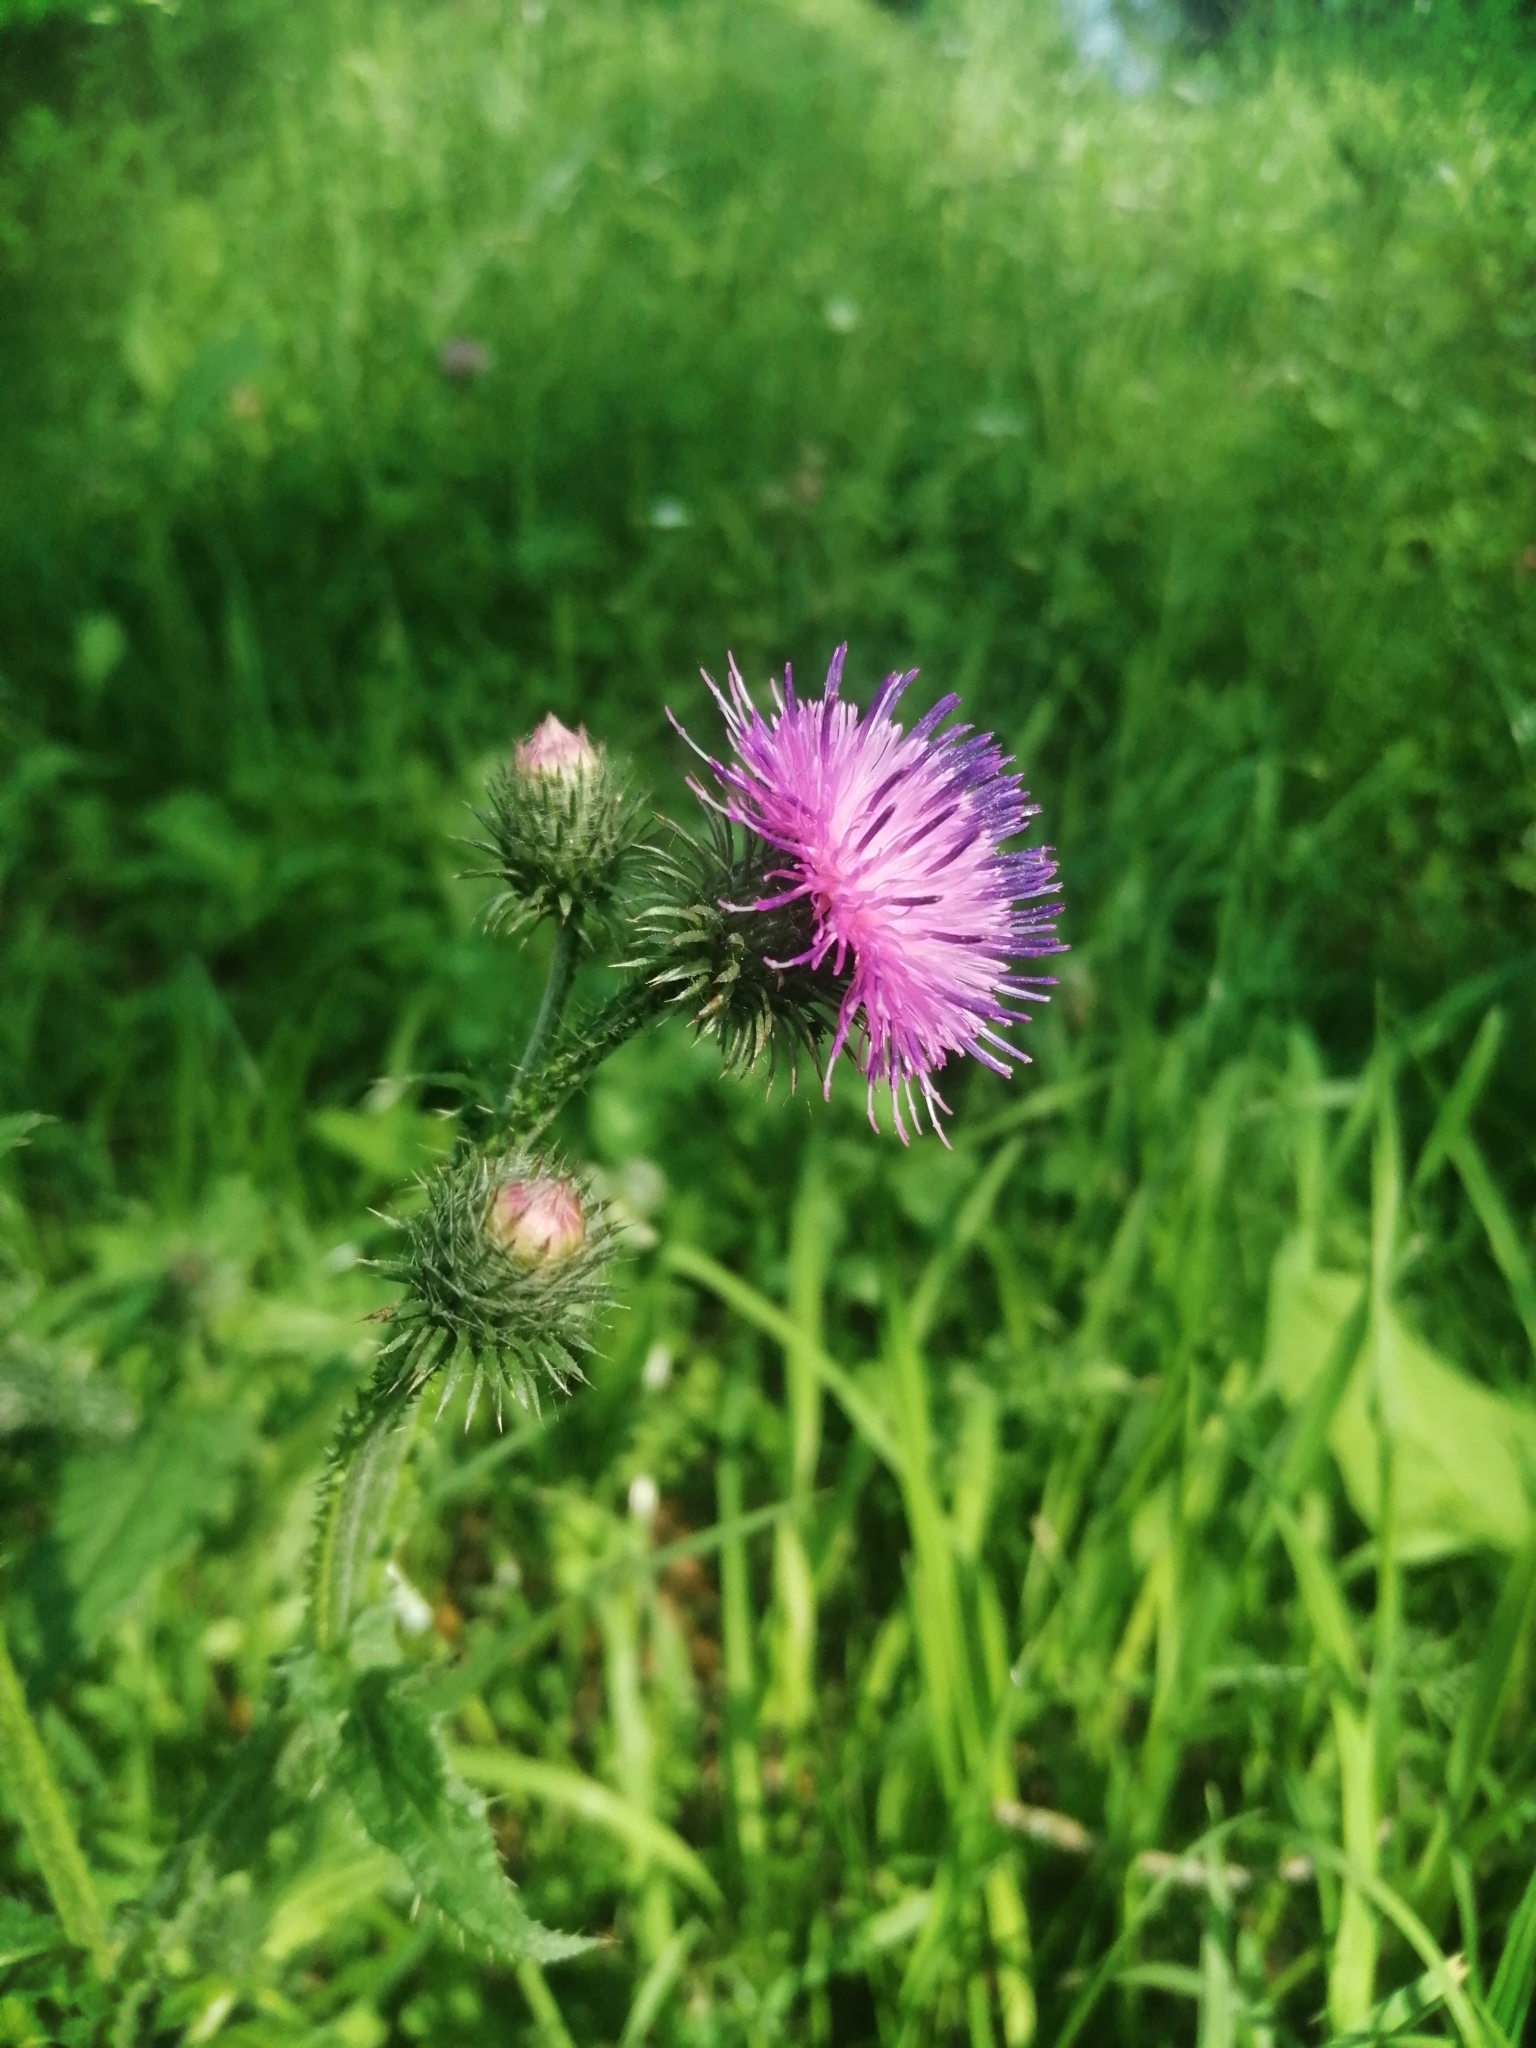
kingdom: Plantae
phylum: Tracheophyta
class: Magnoliopsida
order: Asterales
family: Asteraceae
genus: Carduus
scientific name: Carduus crispus
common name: Welted thistle
